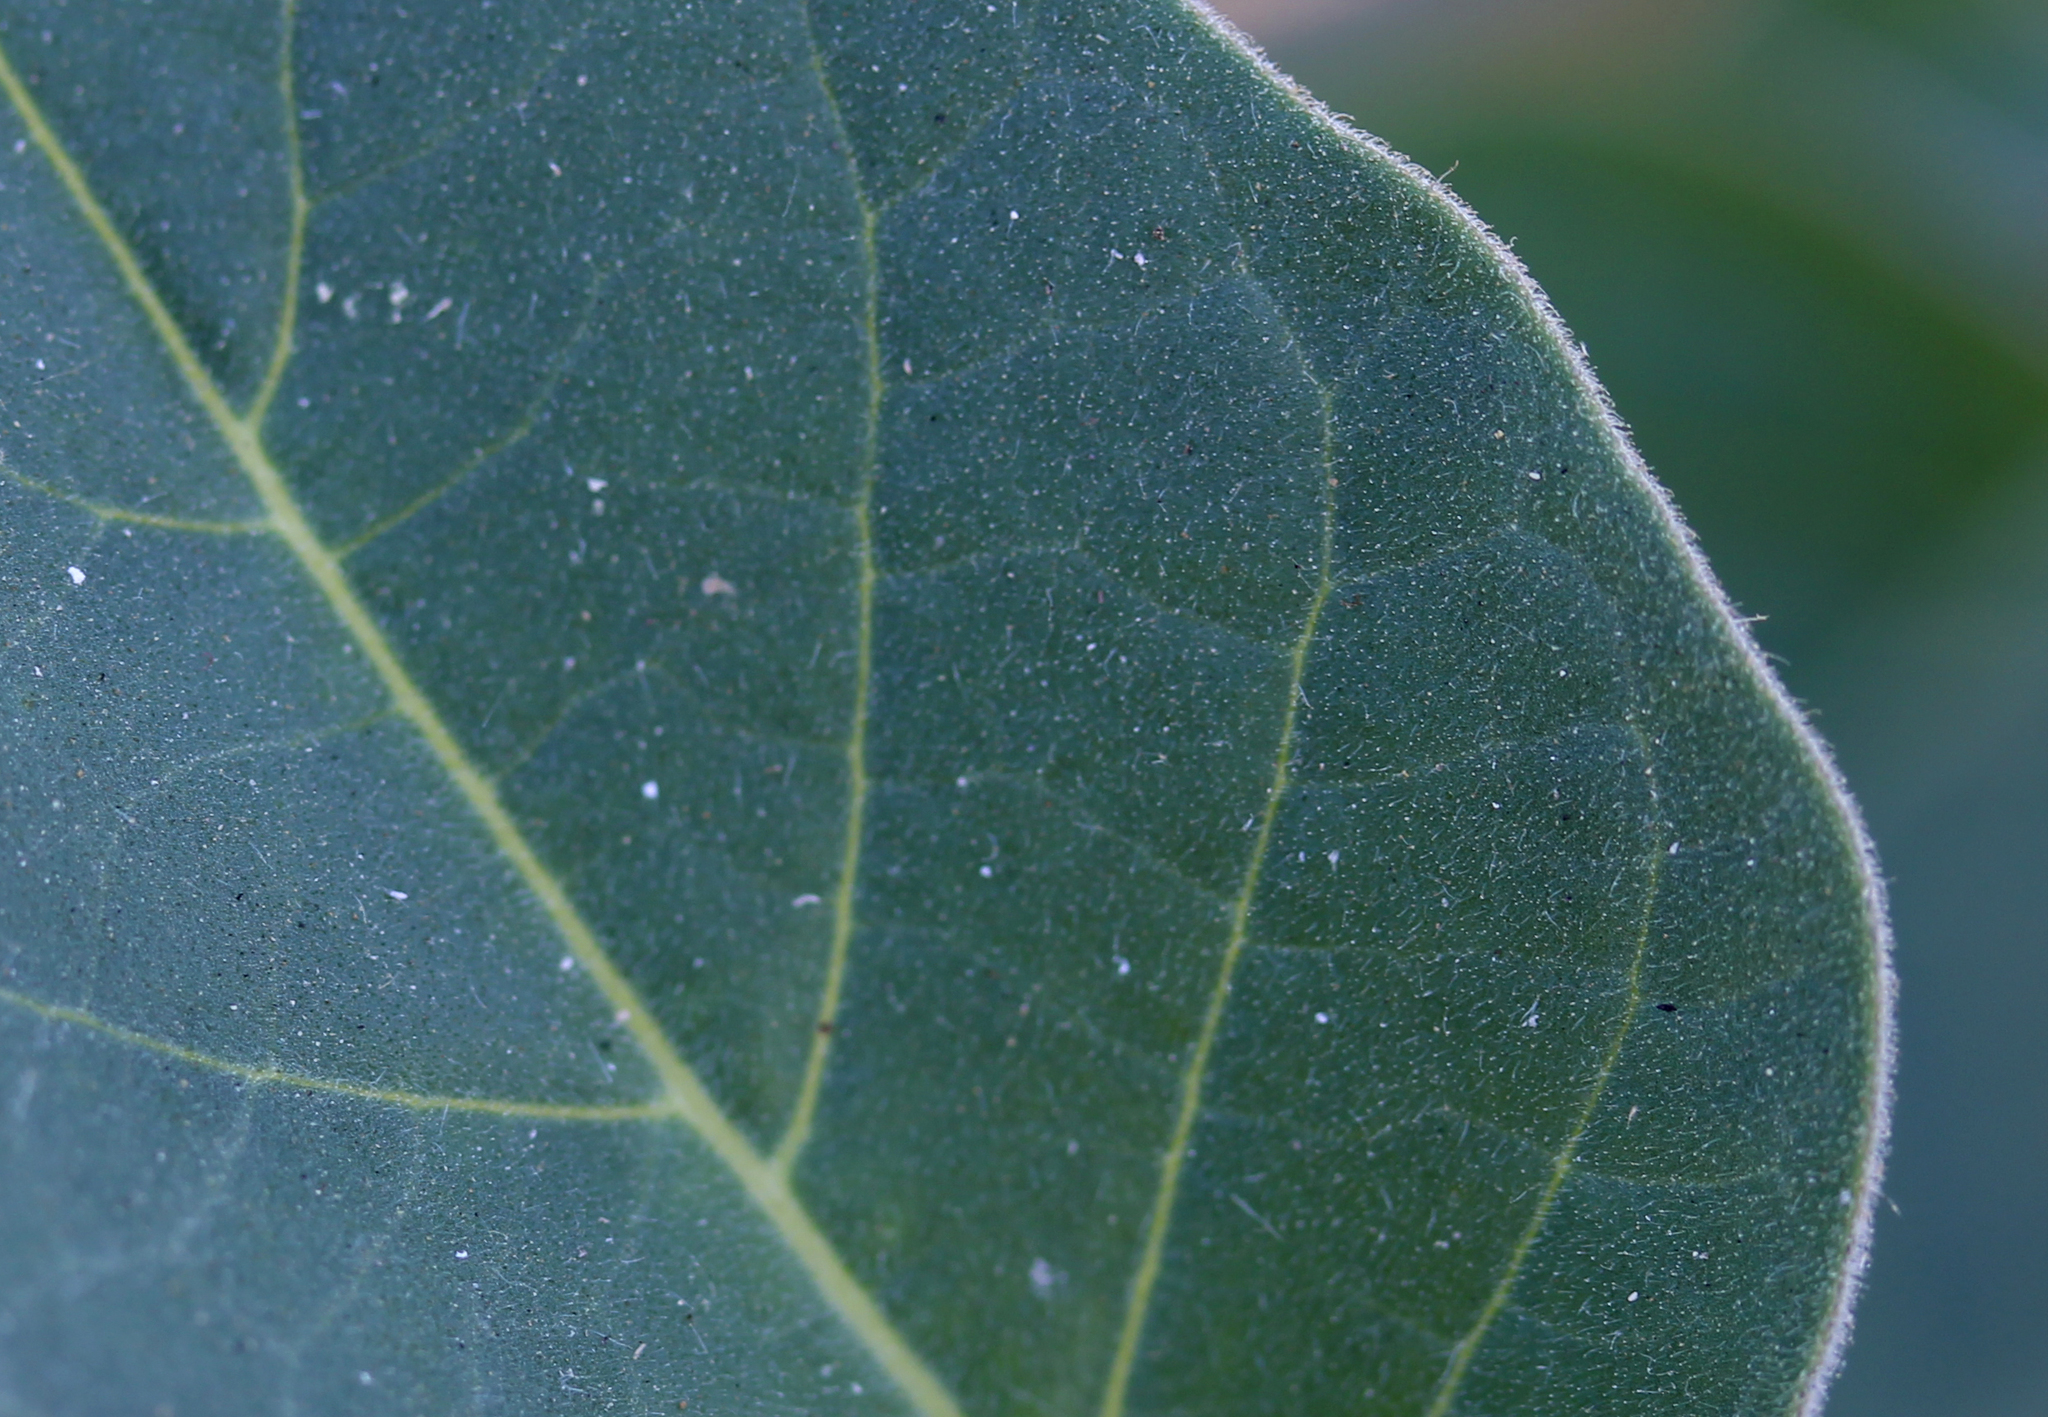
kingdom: Plantae
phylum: Tracheophyta
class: Magnoliopsida
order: Solanales
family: Solanaceae
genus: Datura
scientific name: Datura wrightii
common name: Sacred thorn-apple
